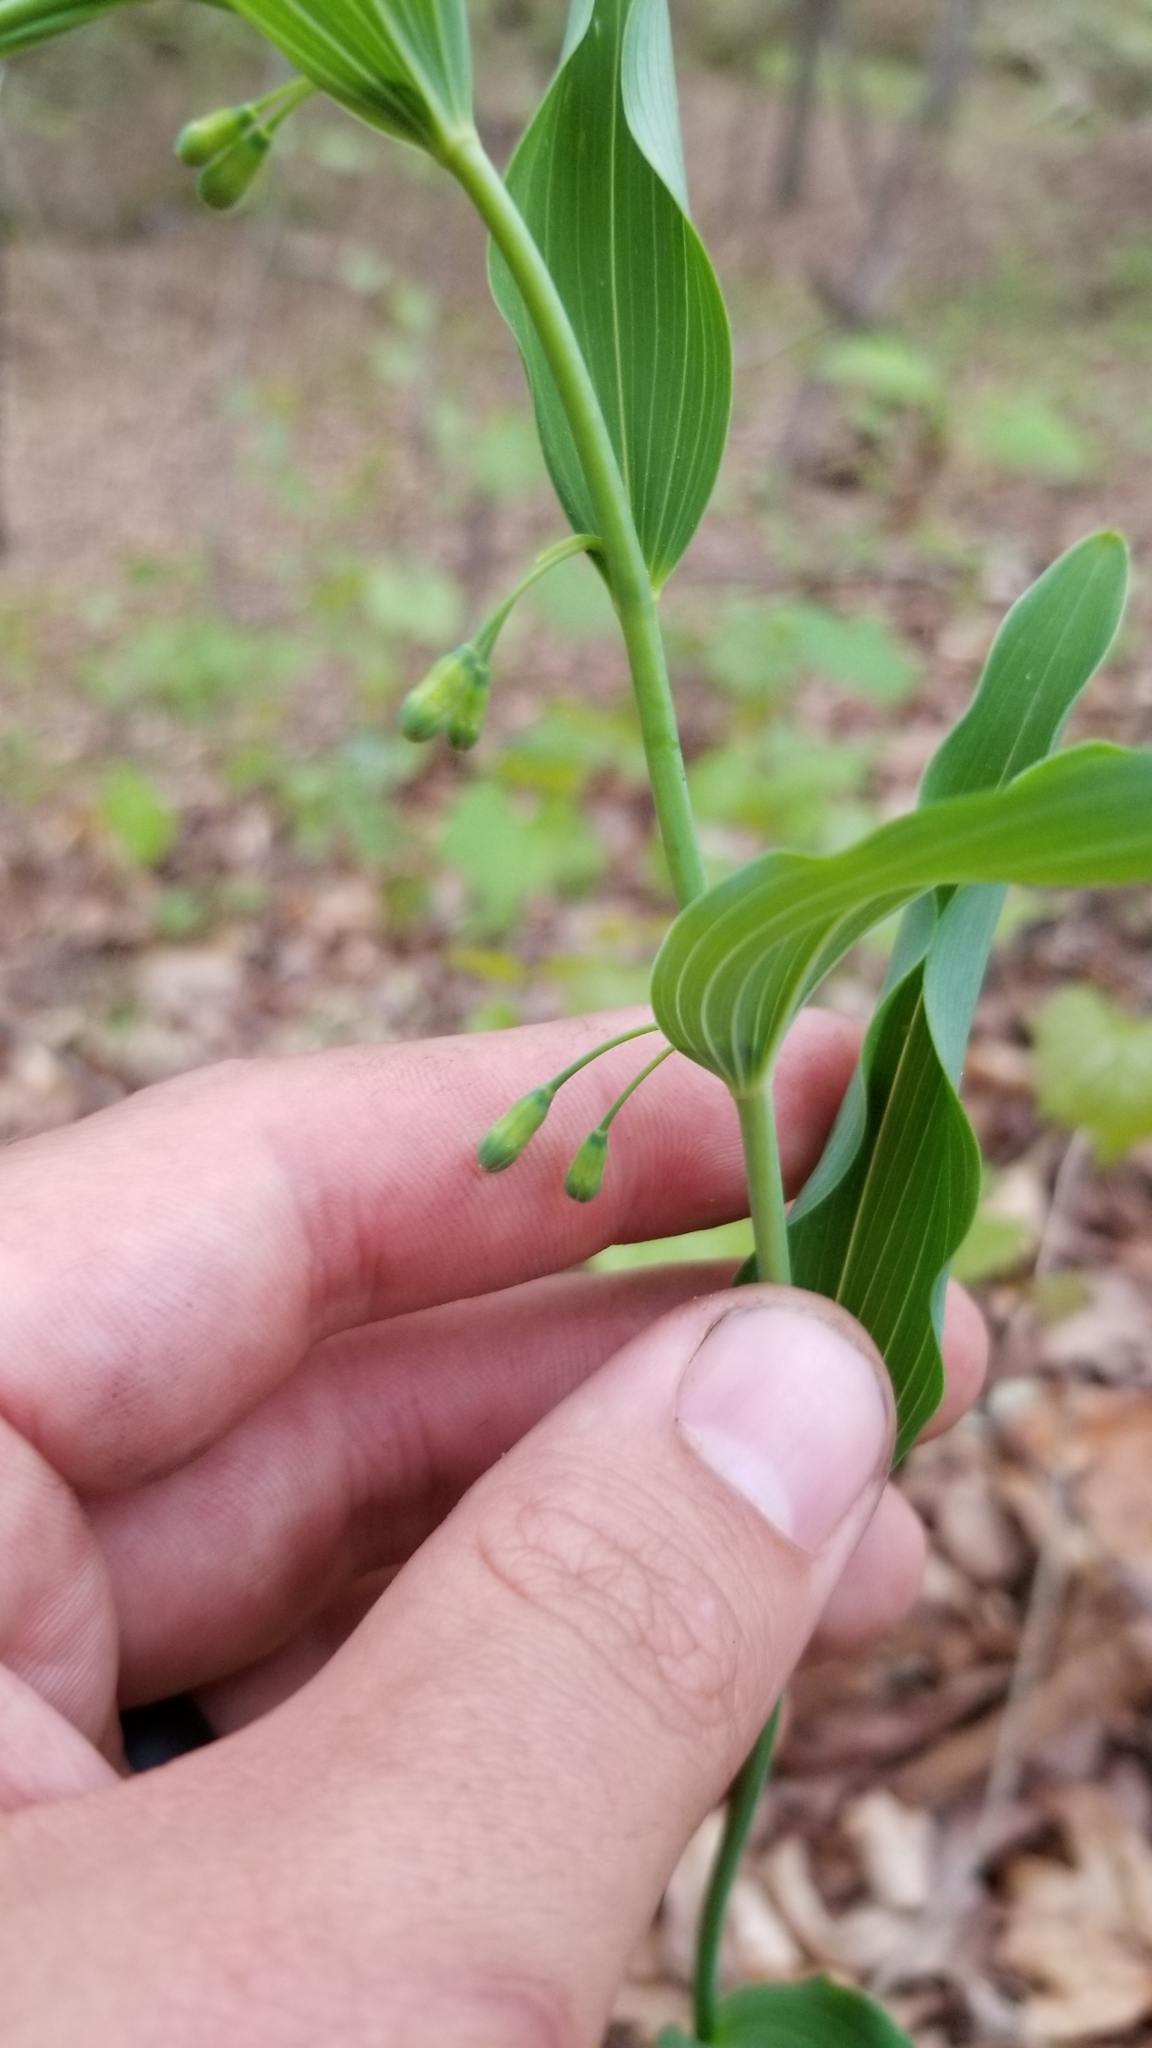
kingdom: Plantae
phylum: Tracheophyta
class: Liliopsida
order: Asparagales
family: Asparagaceae
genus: Polygonatum
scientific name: Polygonatum biflorum
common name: American solomon's-seal
